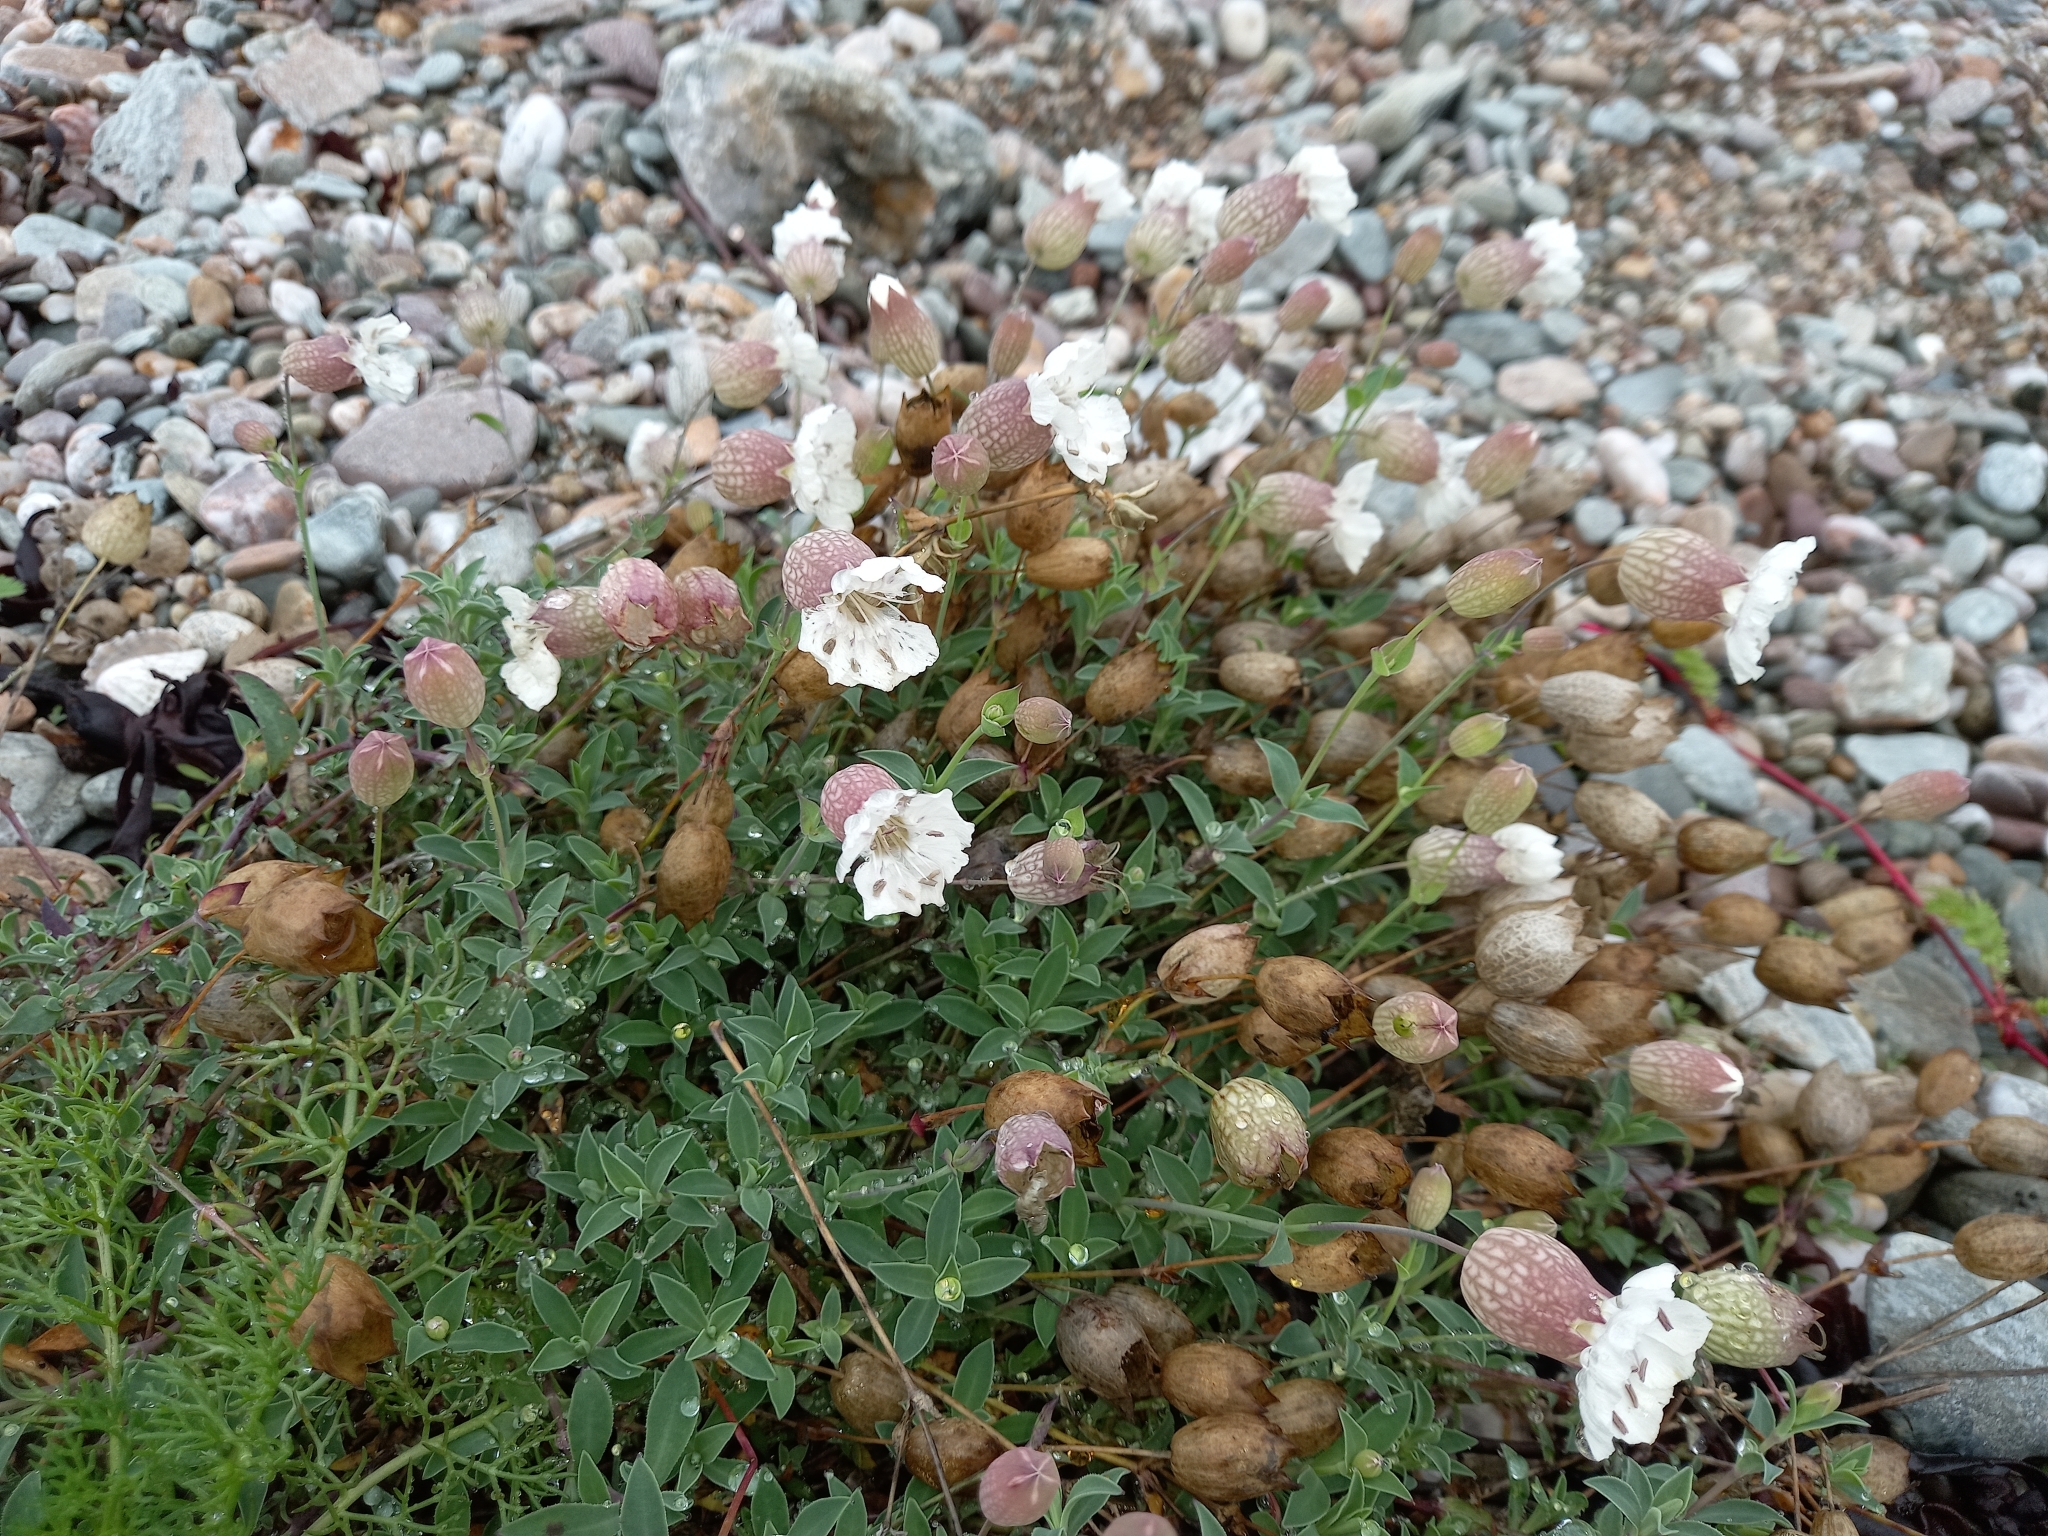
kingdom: Plantae
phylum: Tracheophyta
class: Magnoliopsida
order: Caryophyllales
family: Caryophyllaceae
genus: Silene
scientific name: Silene uniflora
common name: Sea campion
